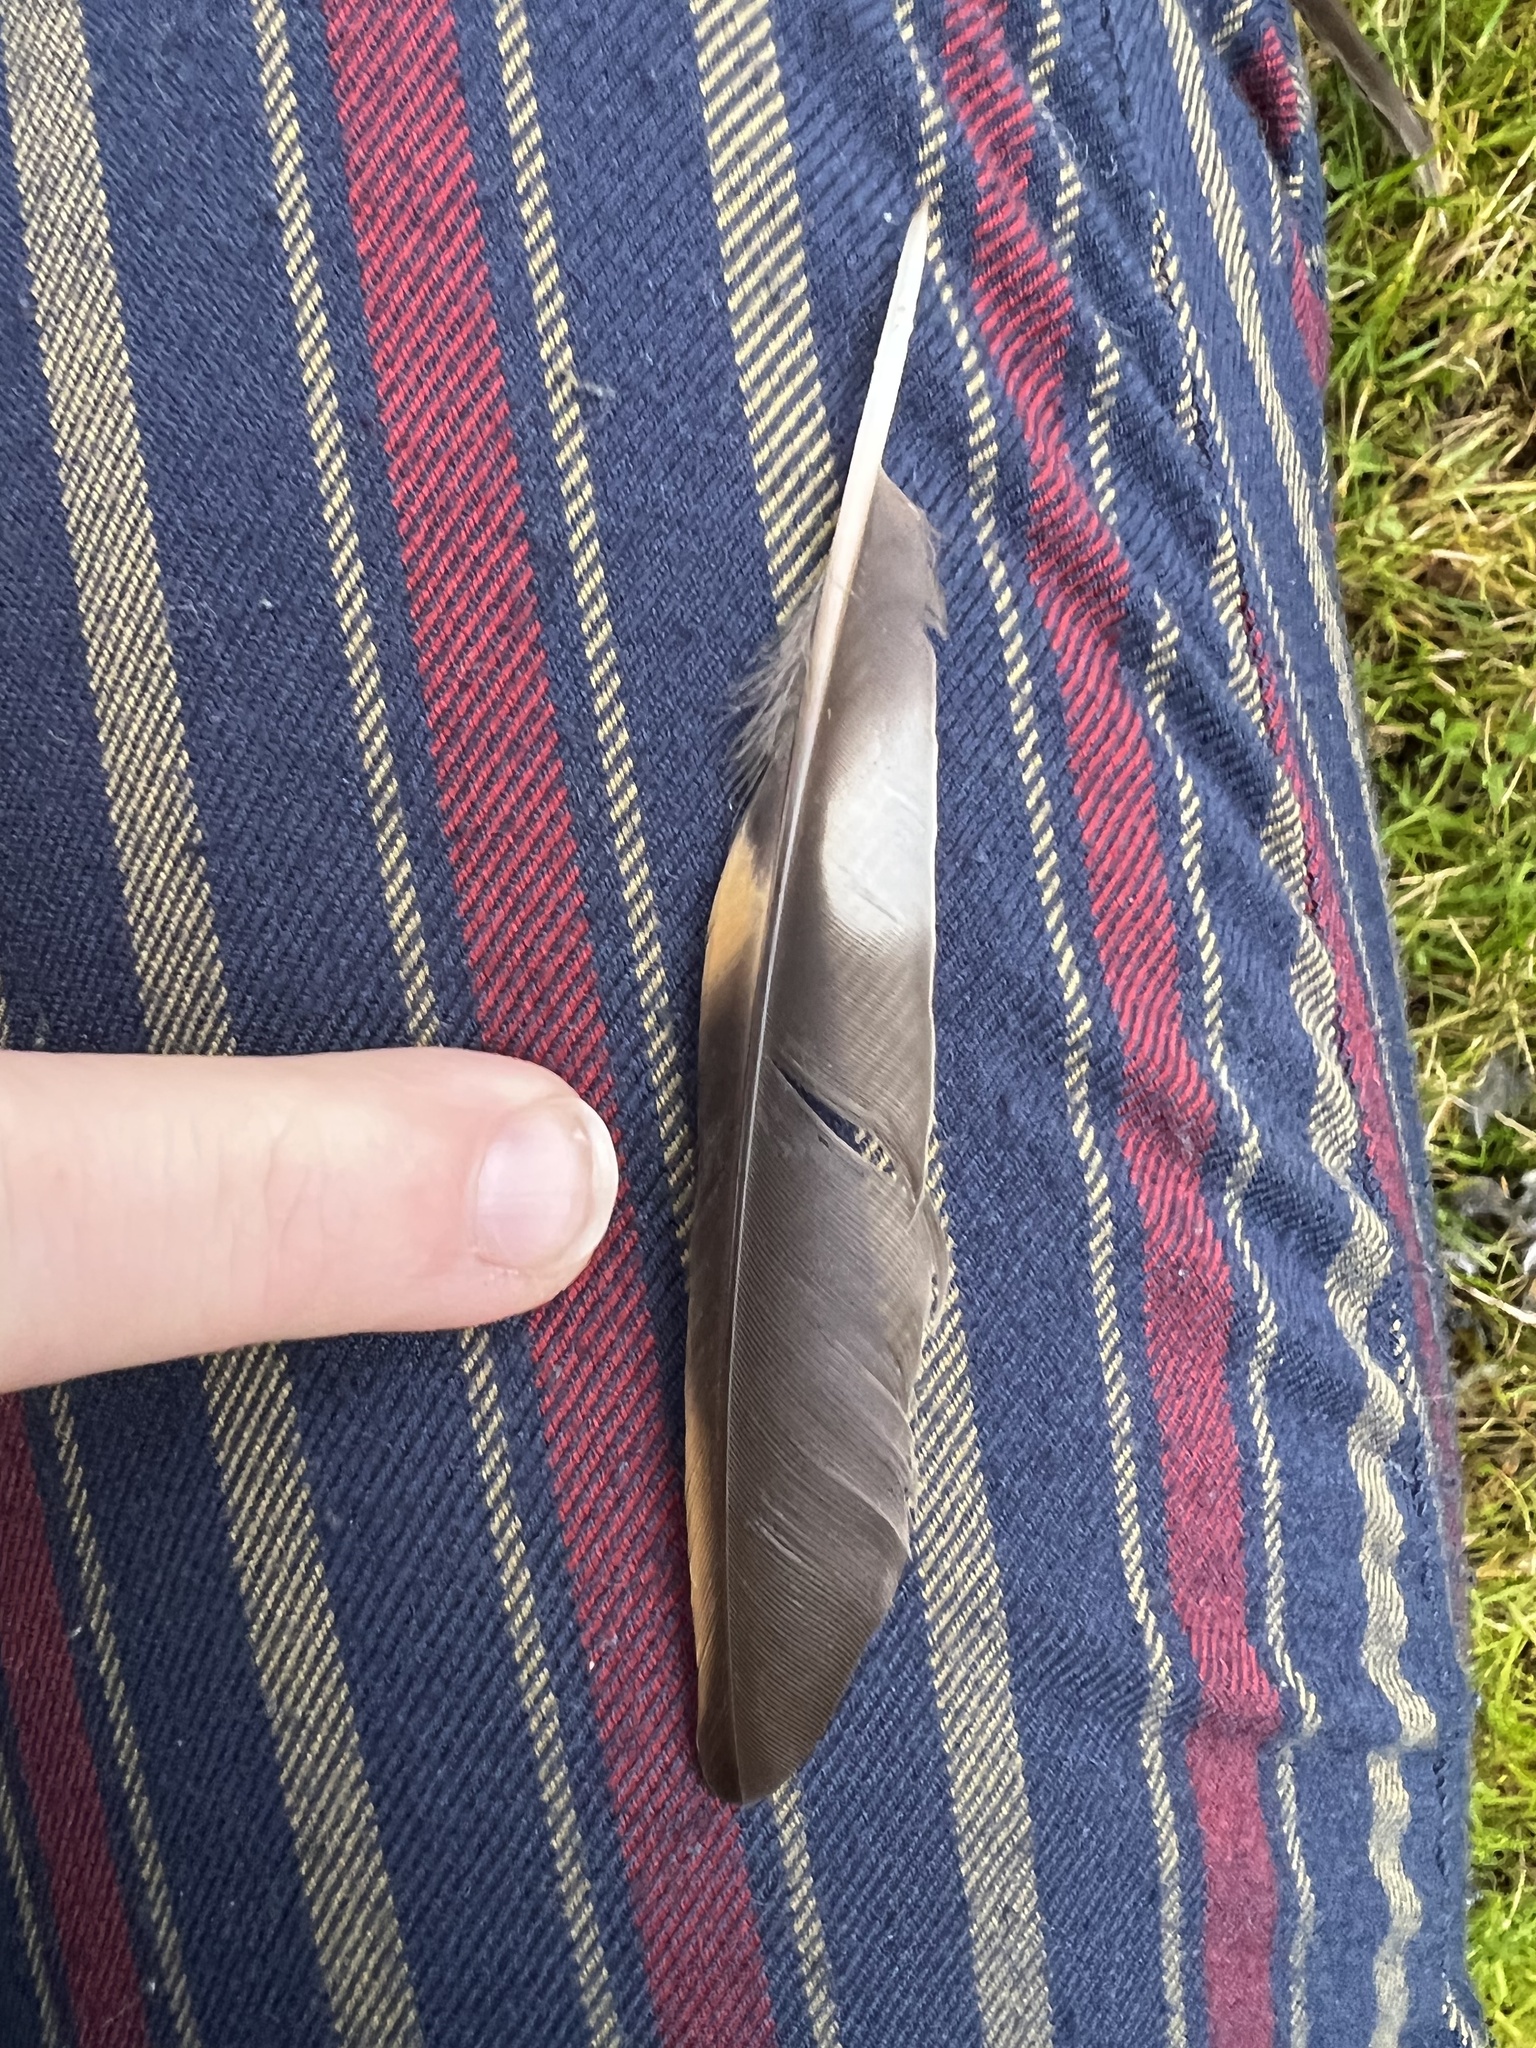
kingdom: Animalia
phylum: Chordata
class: Aves
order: Passeriformes
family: Turdidae
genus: Ixoreus
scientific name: Ixoreus naevius
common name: Varied thrush
